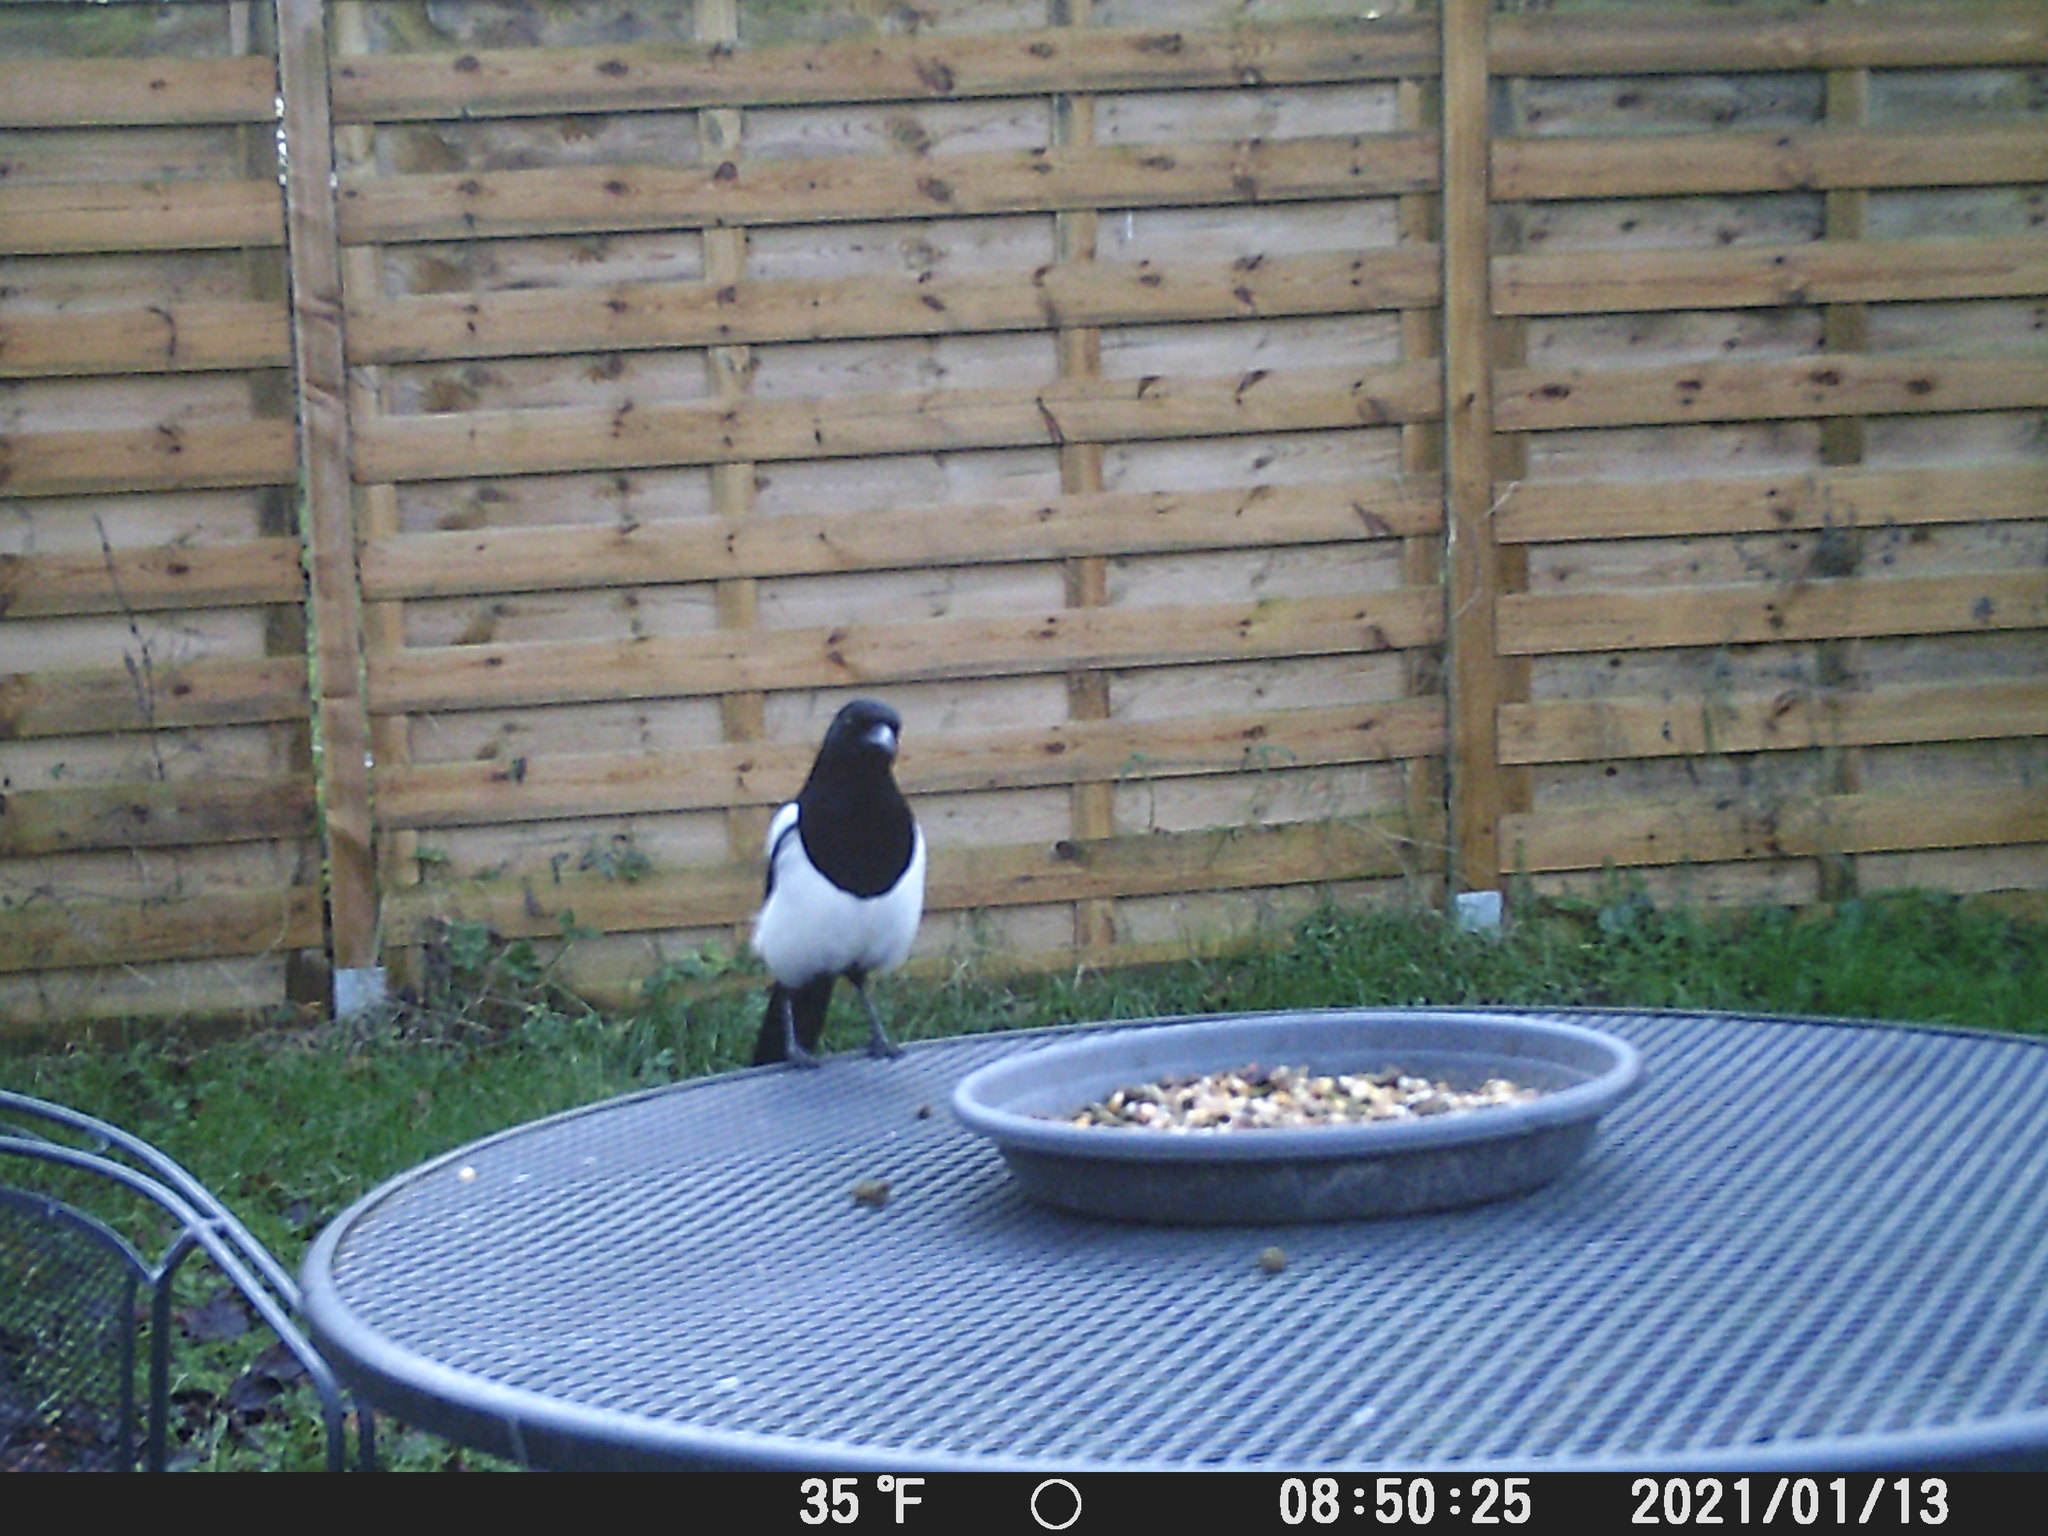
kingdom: Animalia
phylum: Chordata
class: Aves
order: Passeriformes
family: Corvidae
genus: Pica
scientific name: Pica pica
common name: Eurasian magpie
